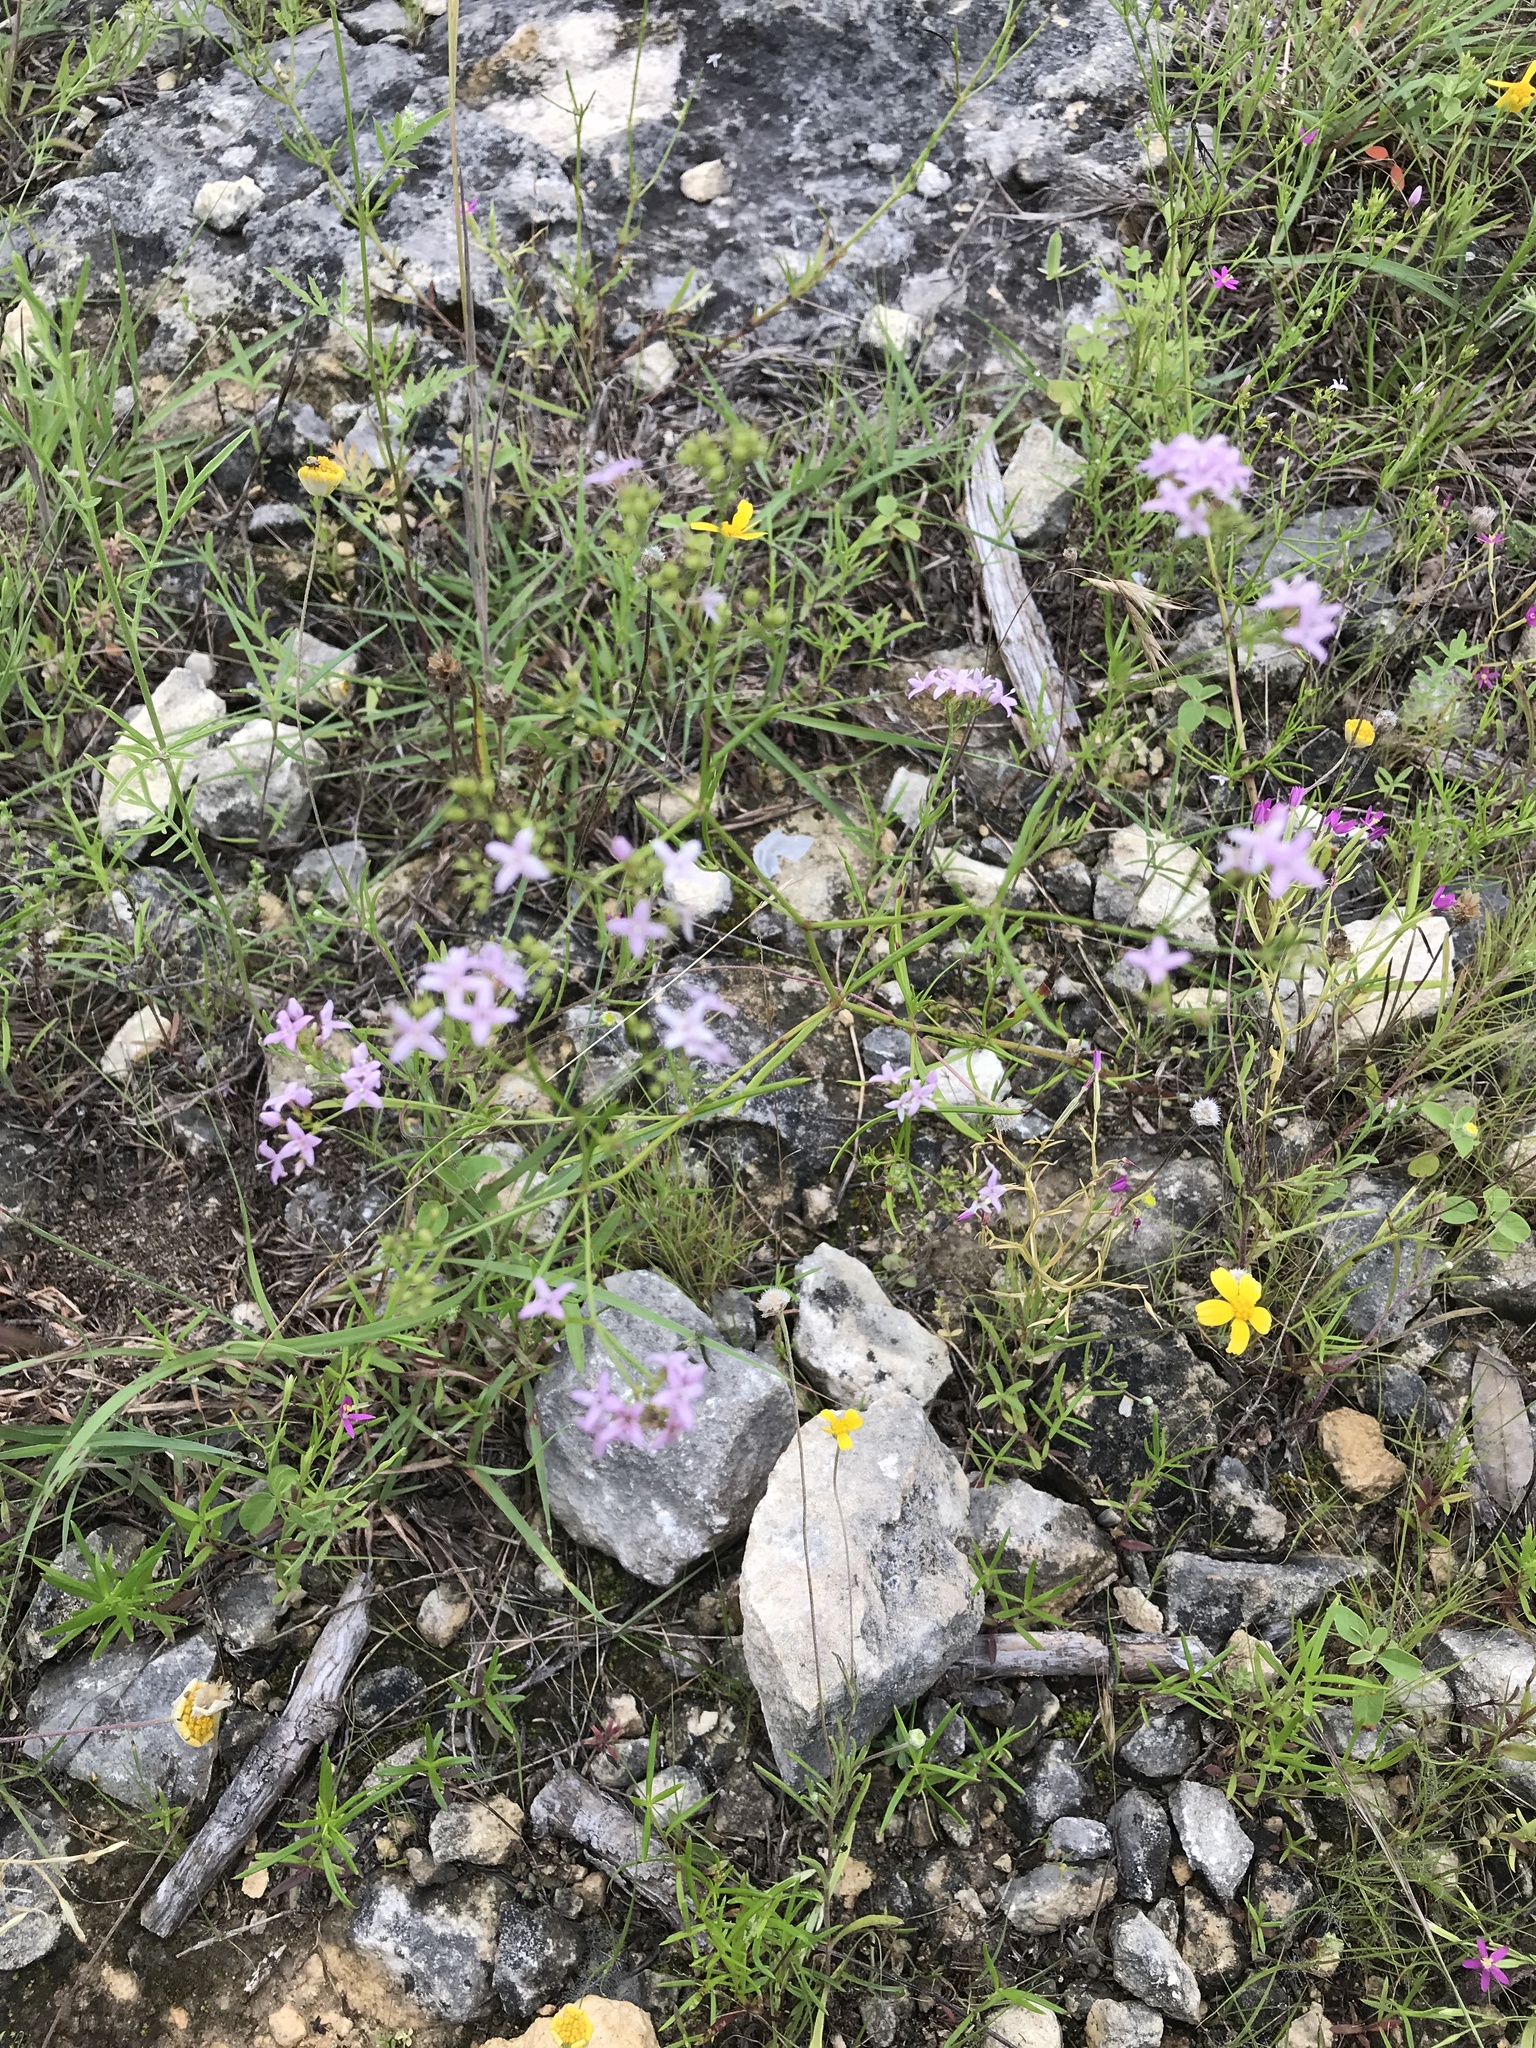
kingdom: Plantae
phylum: Tracheophyta
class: Magnoliopsida
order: Gentianales
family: Rubiaceae
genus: Stenaria
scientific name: Stenaria nigricans
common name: Diamondflowers
